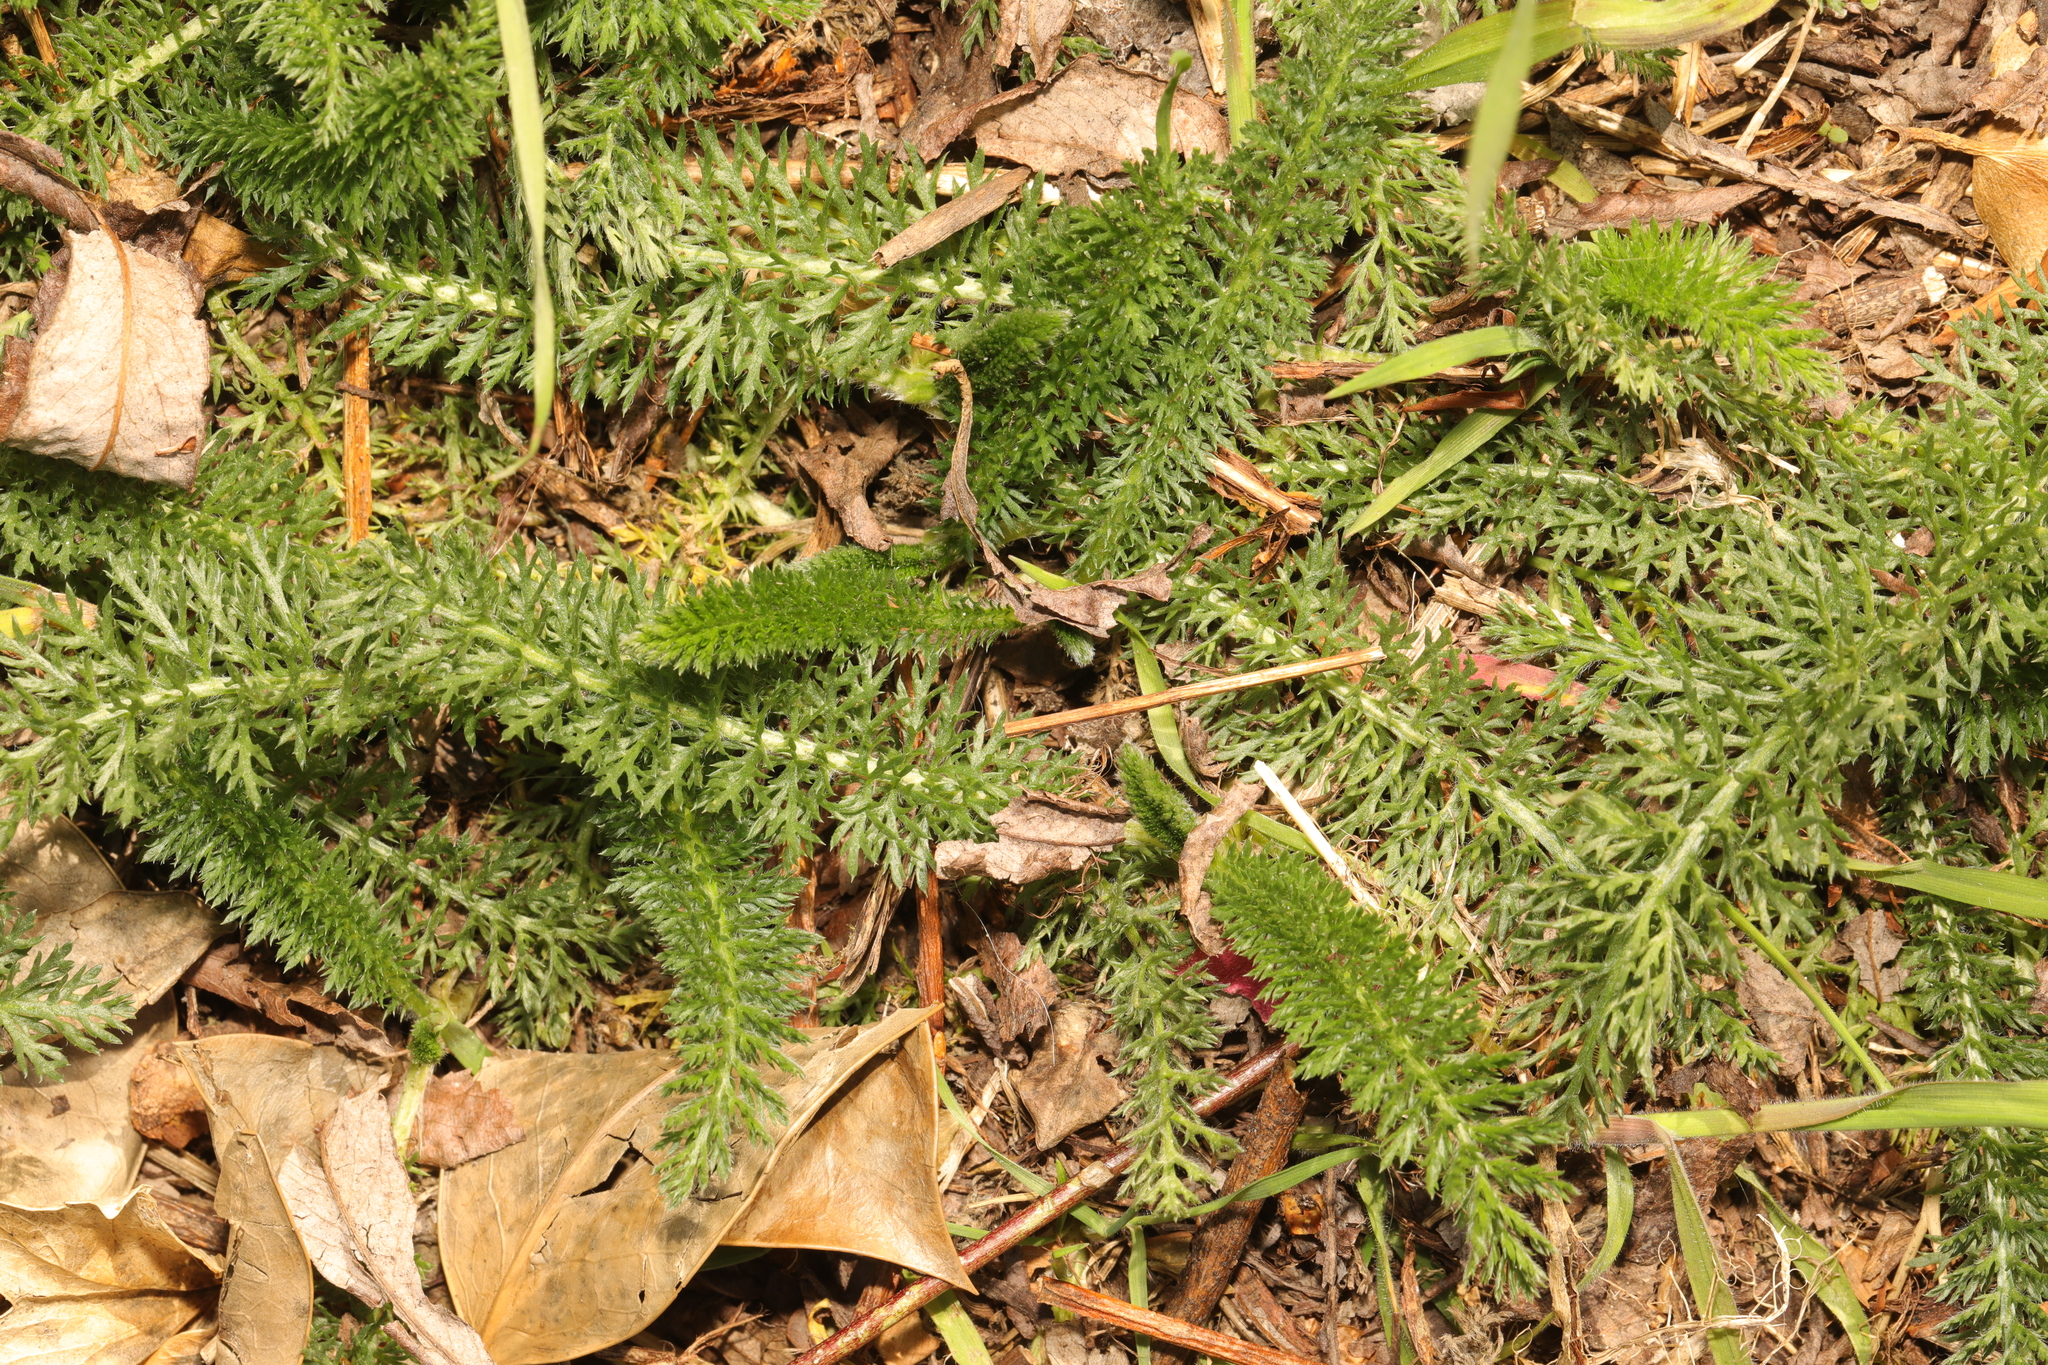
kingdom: Plantae
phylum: Tracheophyta
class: Magnoliopsida
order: Asterales
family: Asteraceae
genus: Achillea
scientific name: Achillea millefolium
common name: Yarrow
